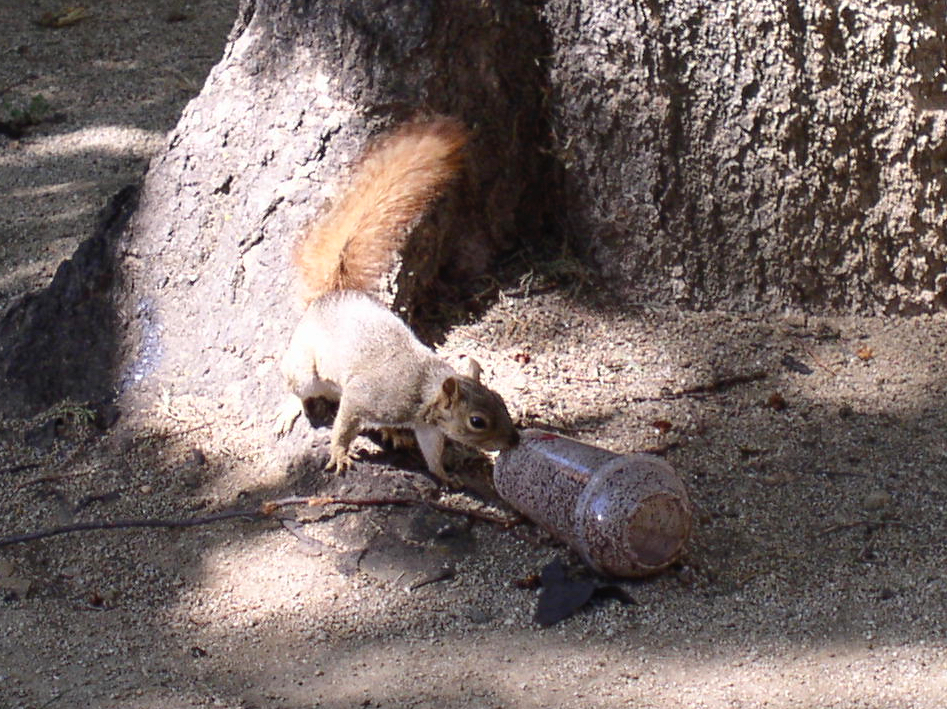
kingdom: Animalia
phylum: Chordata
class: Mammalia
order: Rodentia
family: Sciuridae
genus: Sciurus
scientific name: Sciurus niger
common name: Fox squirrel
